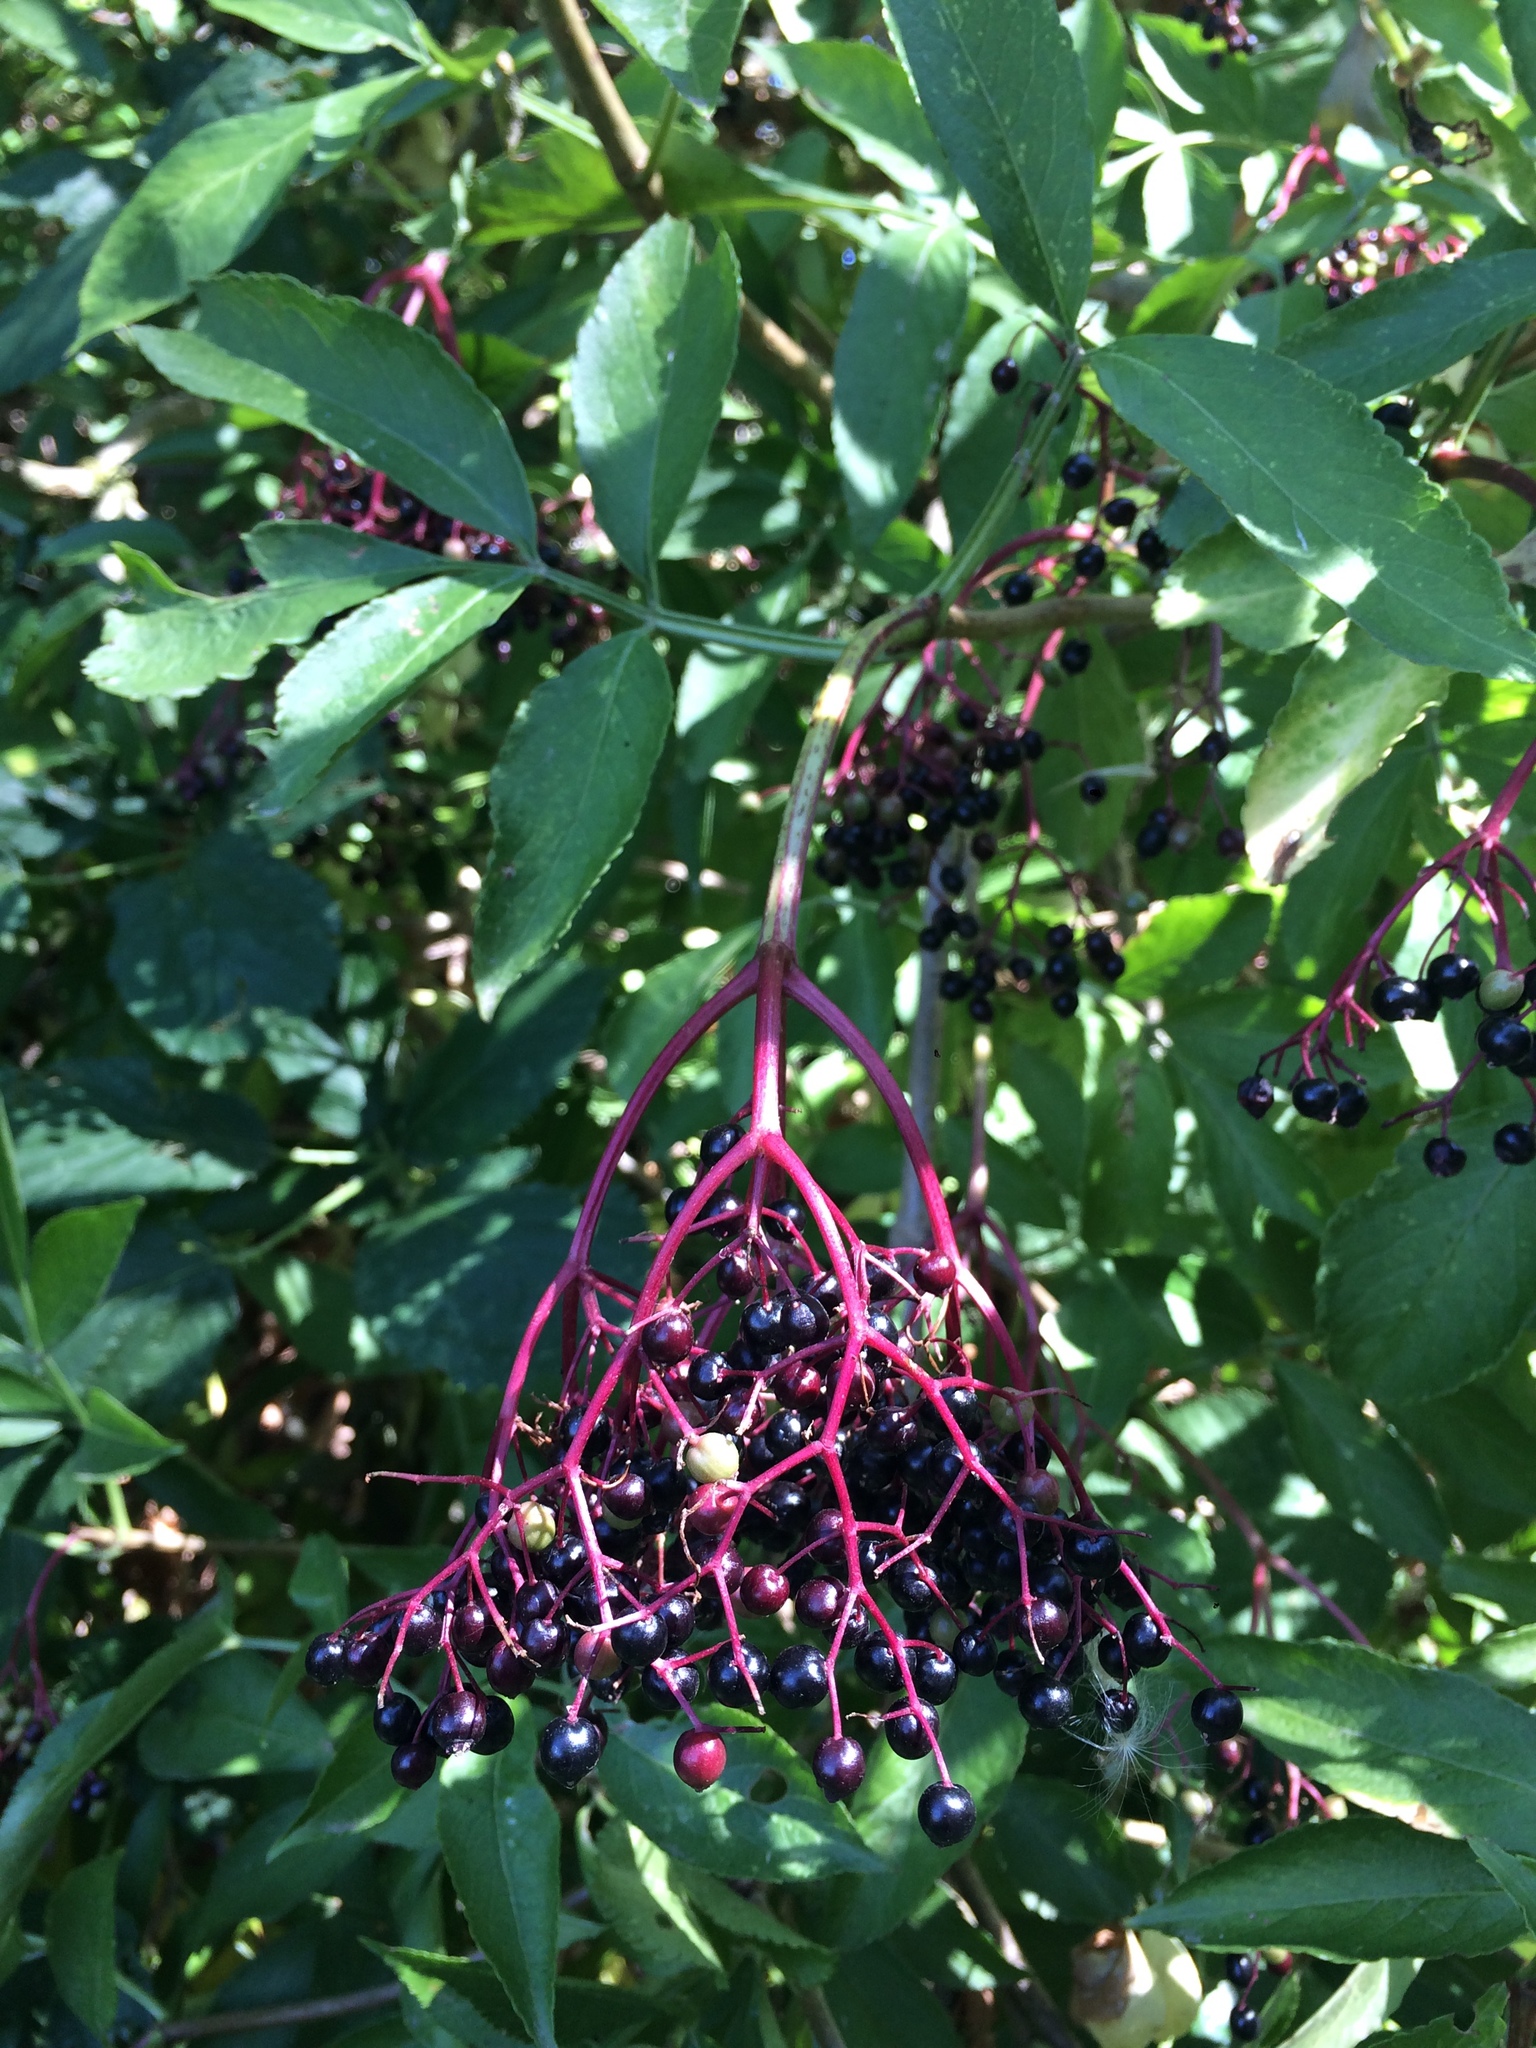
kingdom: Plantae
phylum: Tracheophyta
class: Magnoliopsida
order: Dipsacales
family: Viburnaceae
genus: Sambucus
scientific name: Sambucus nigra
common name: Elder
